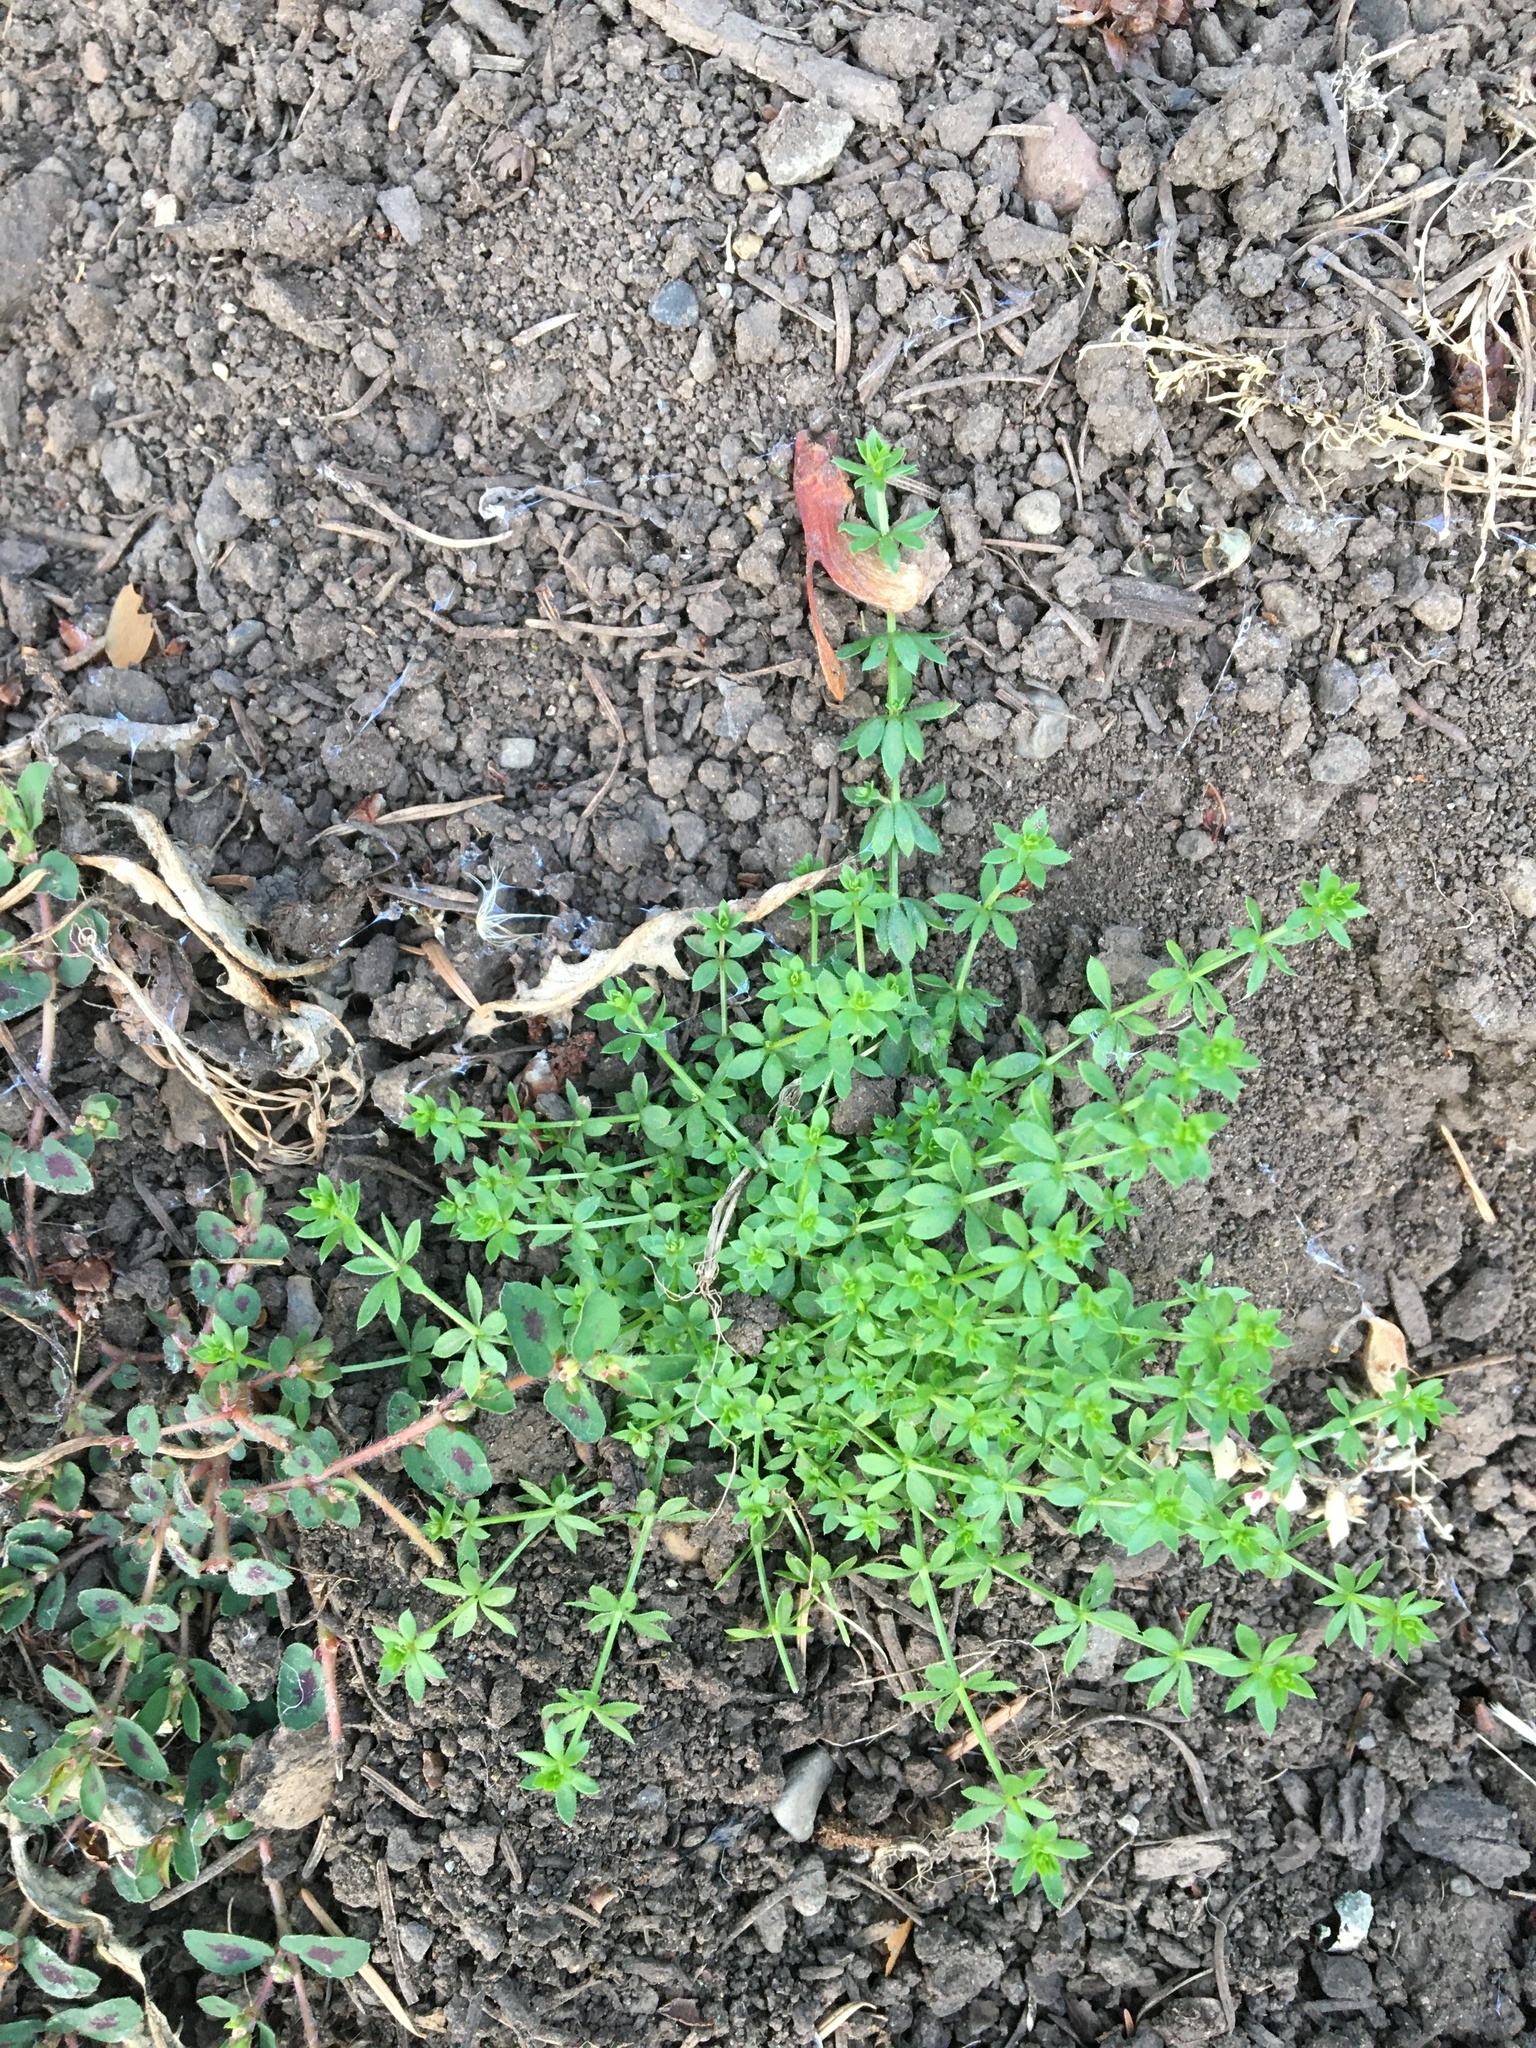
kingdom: Plantae
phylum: Tracheophyta
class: Magnoliopsida
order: Gentianales
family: Rubiaceae
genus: Galium
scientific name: Galium triflorum
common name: Fragrant bedstraw
